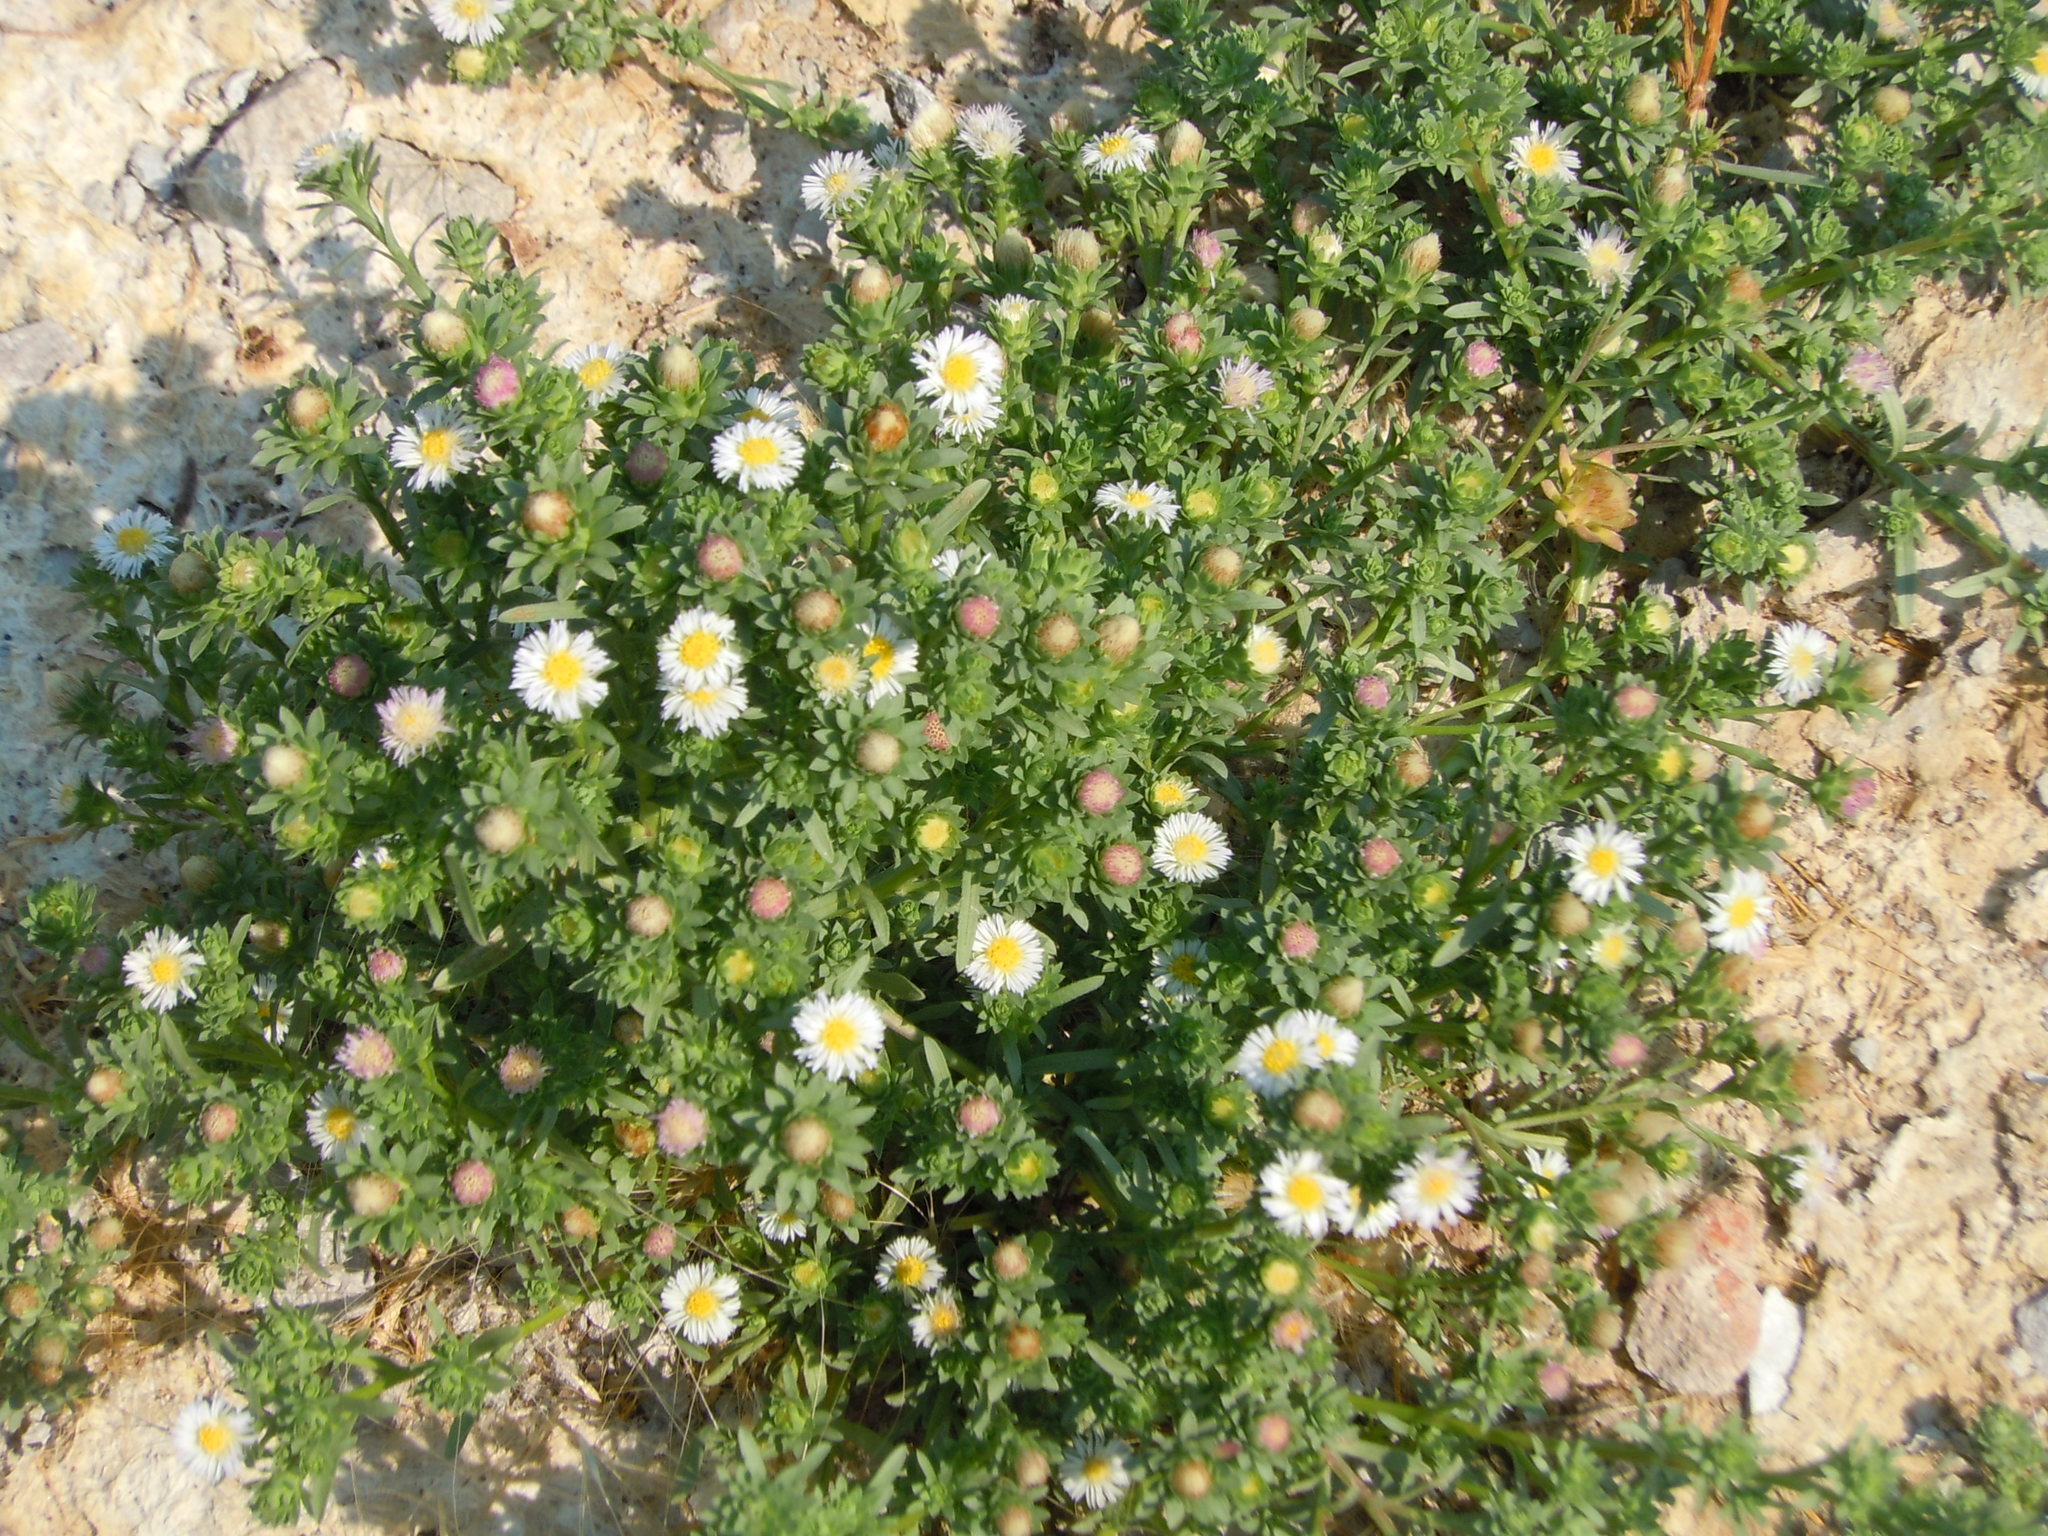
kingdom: Plantae
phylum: Tracheophyta
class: Magnoliopsida
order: Asterales
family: Asteraceae
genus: Symphyotrichum
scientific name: Symphyotrichum frondosum
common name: Leafy aster
